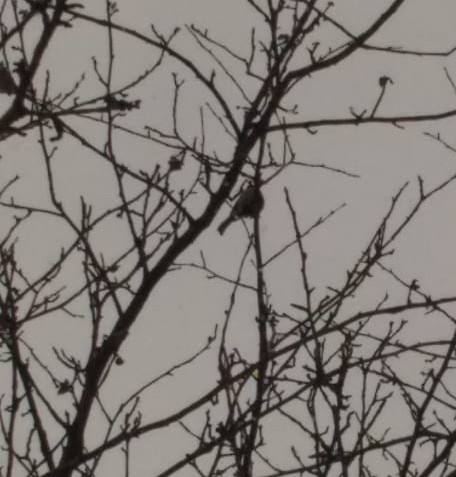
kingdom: Animalia
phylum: Chordata
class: Aves
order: Passeriformes
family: Paridae
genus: Parus
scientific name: Parus major
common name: Great tit
